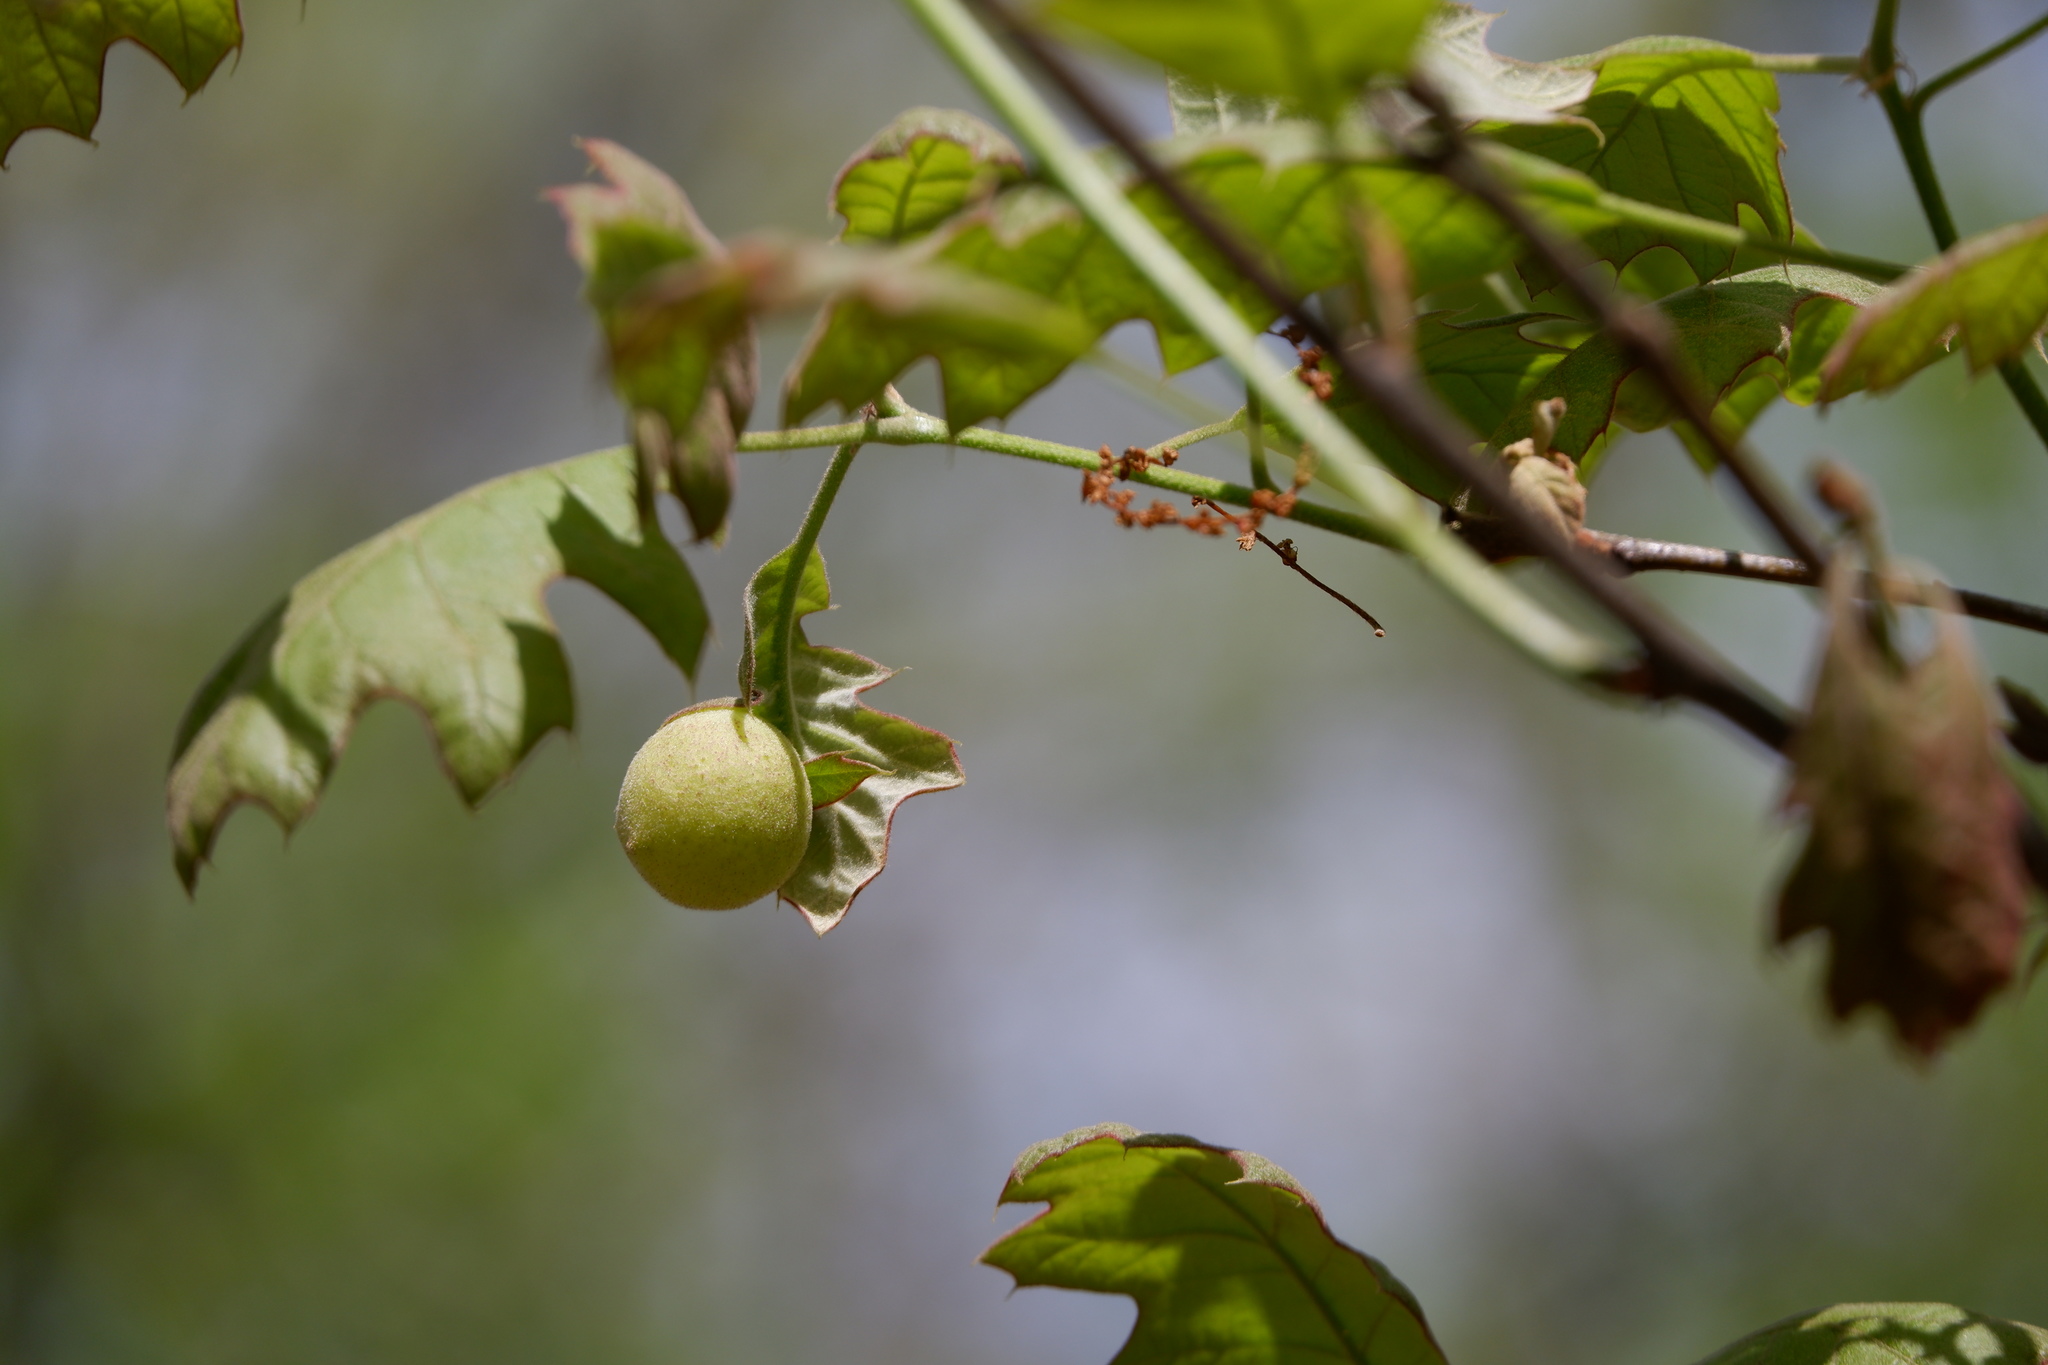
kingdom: Animalia
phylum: Arthropoda
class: Insecta
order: Hymenoptera
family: Cynipidae
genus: Amphibolips
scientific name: Amphibolips
